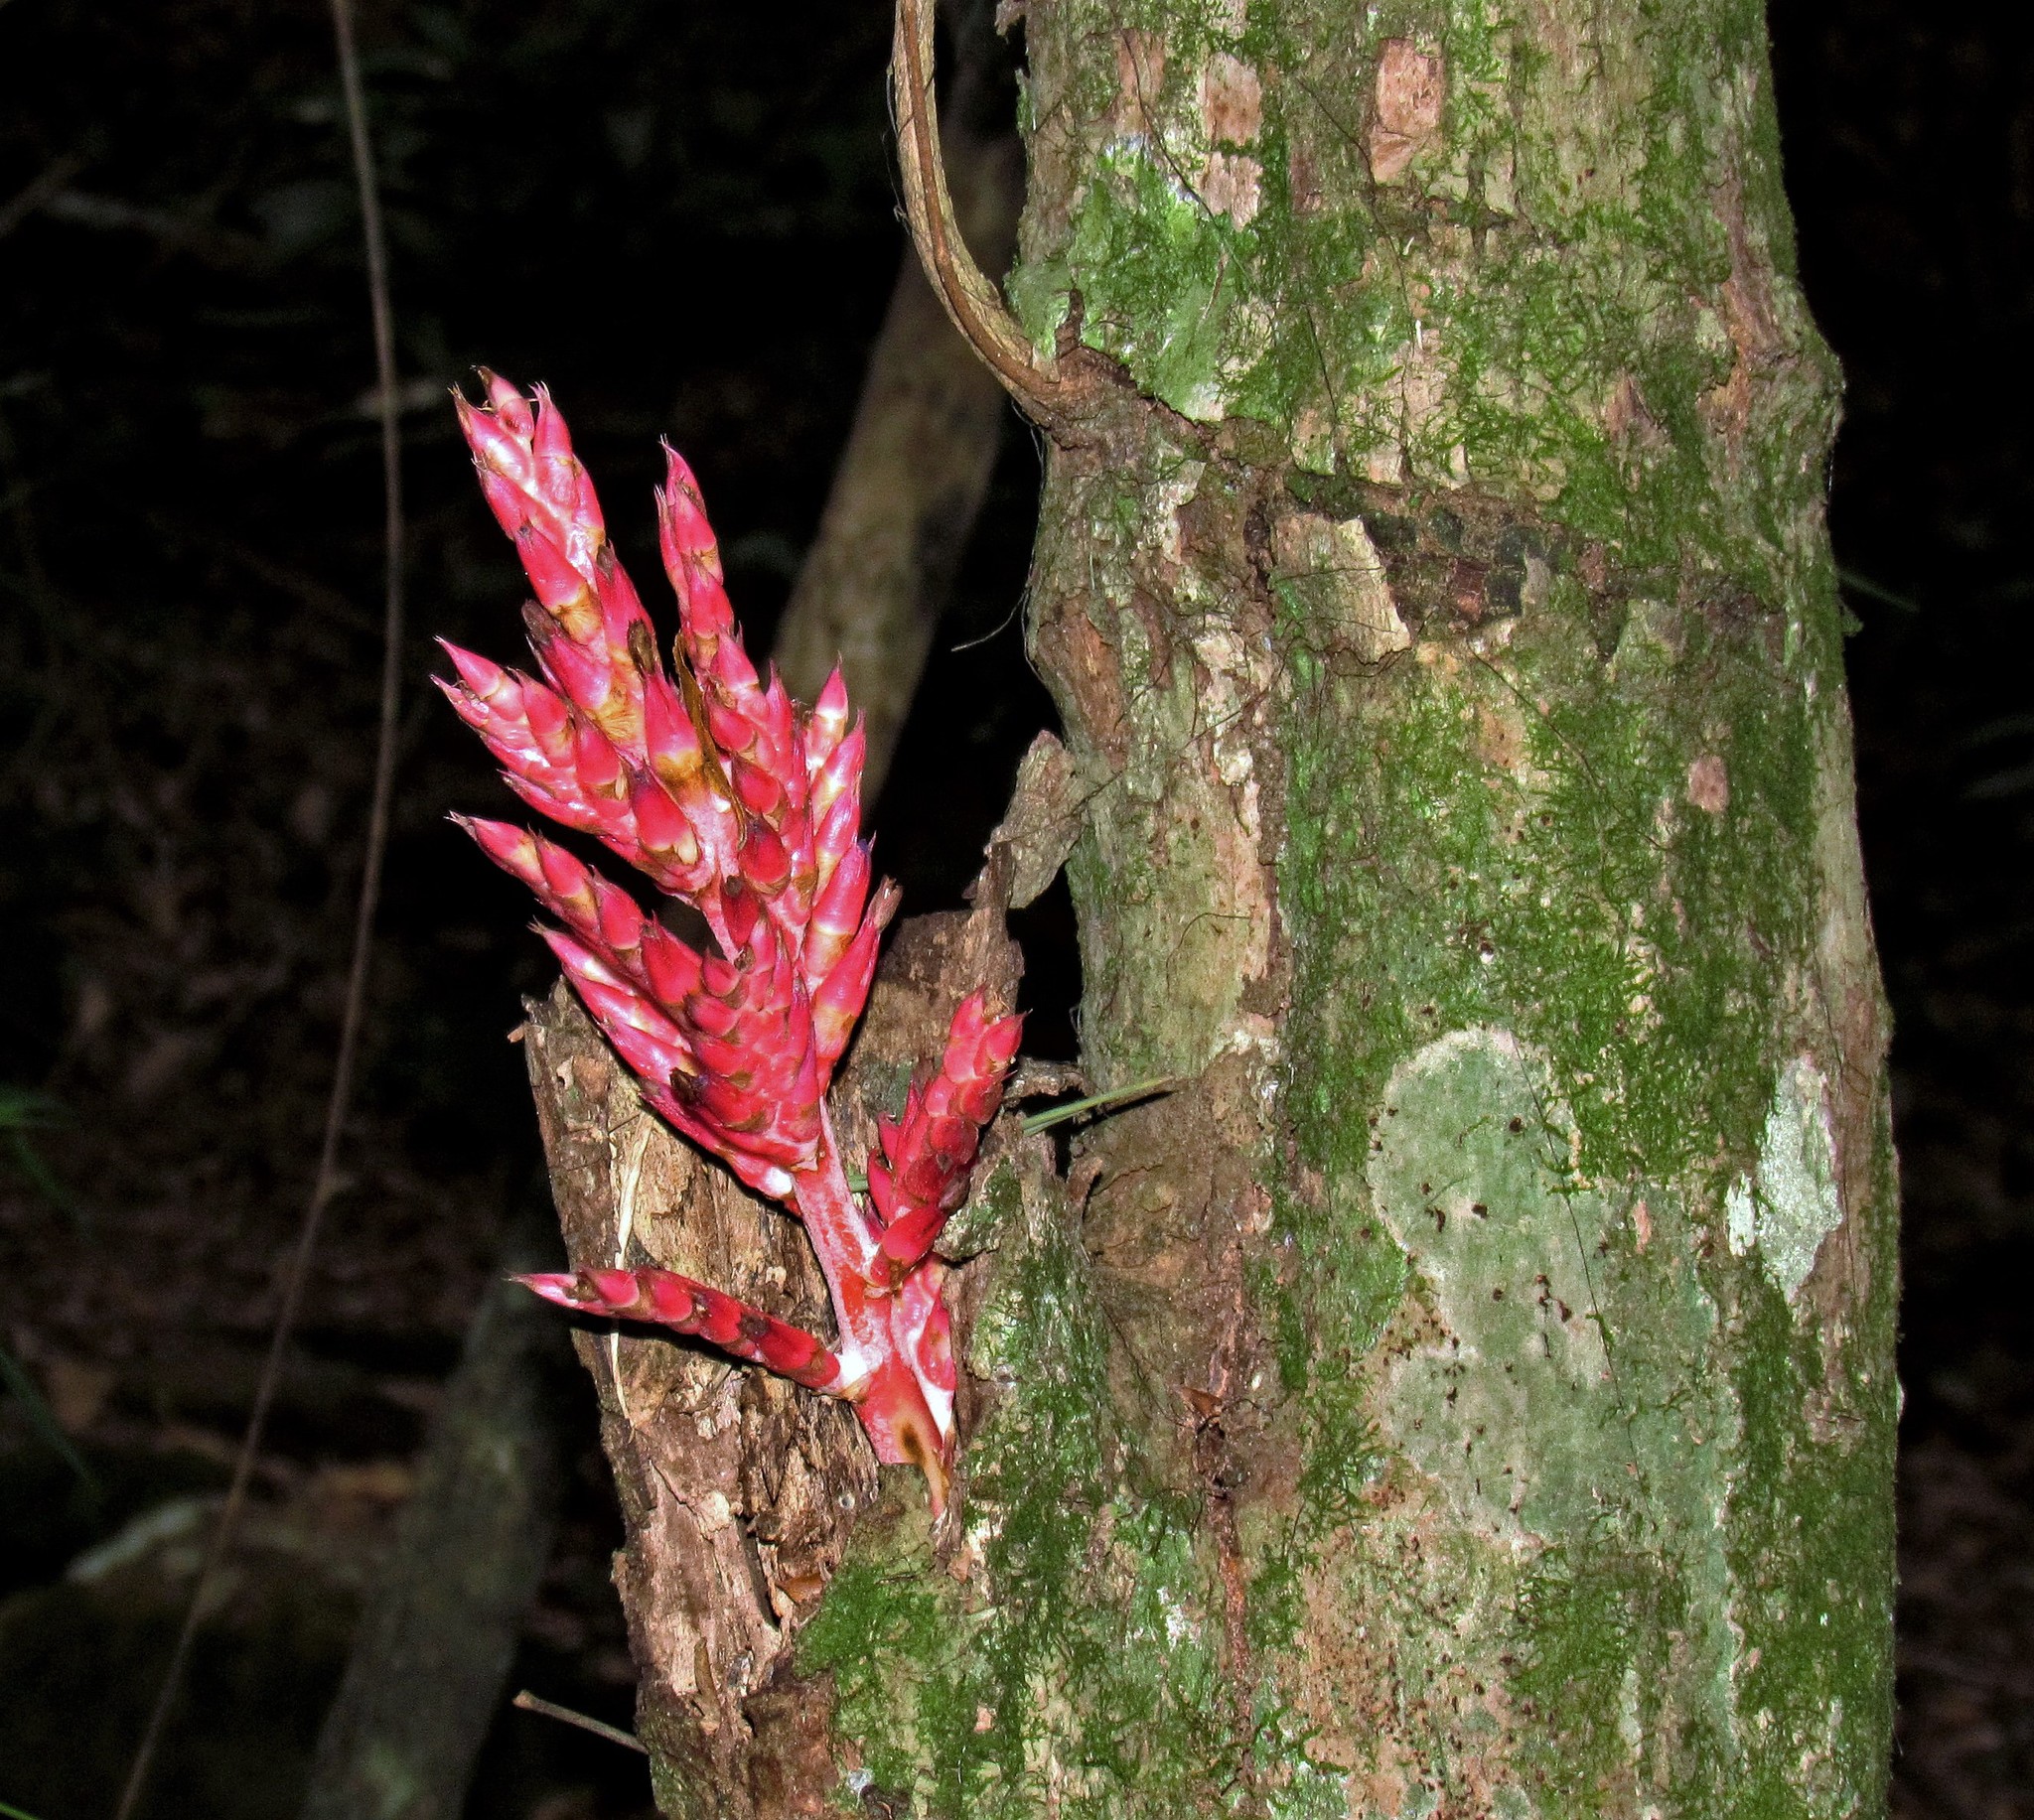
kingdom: Plantae
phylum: Tracheophyta
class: Liliopsida
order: Poales
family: Bromeliaceae
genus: Aechmea
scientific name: Aechmea distichantha
